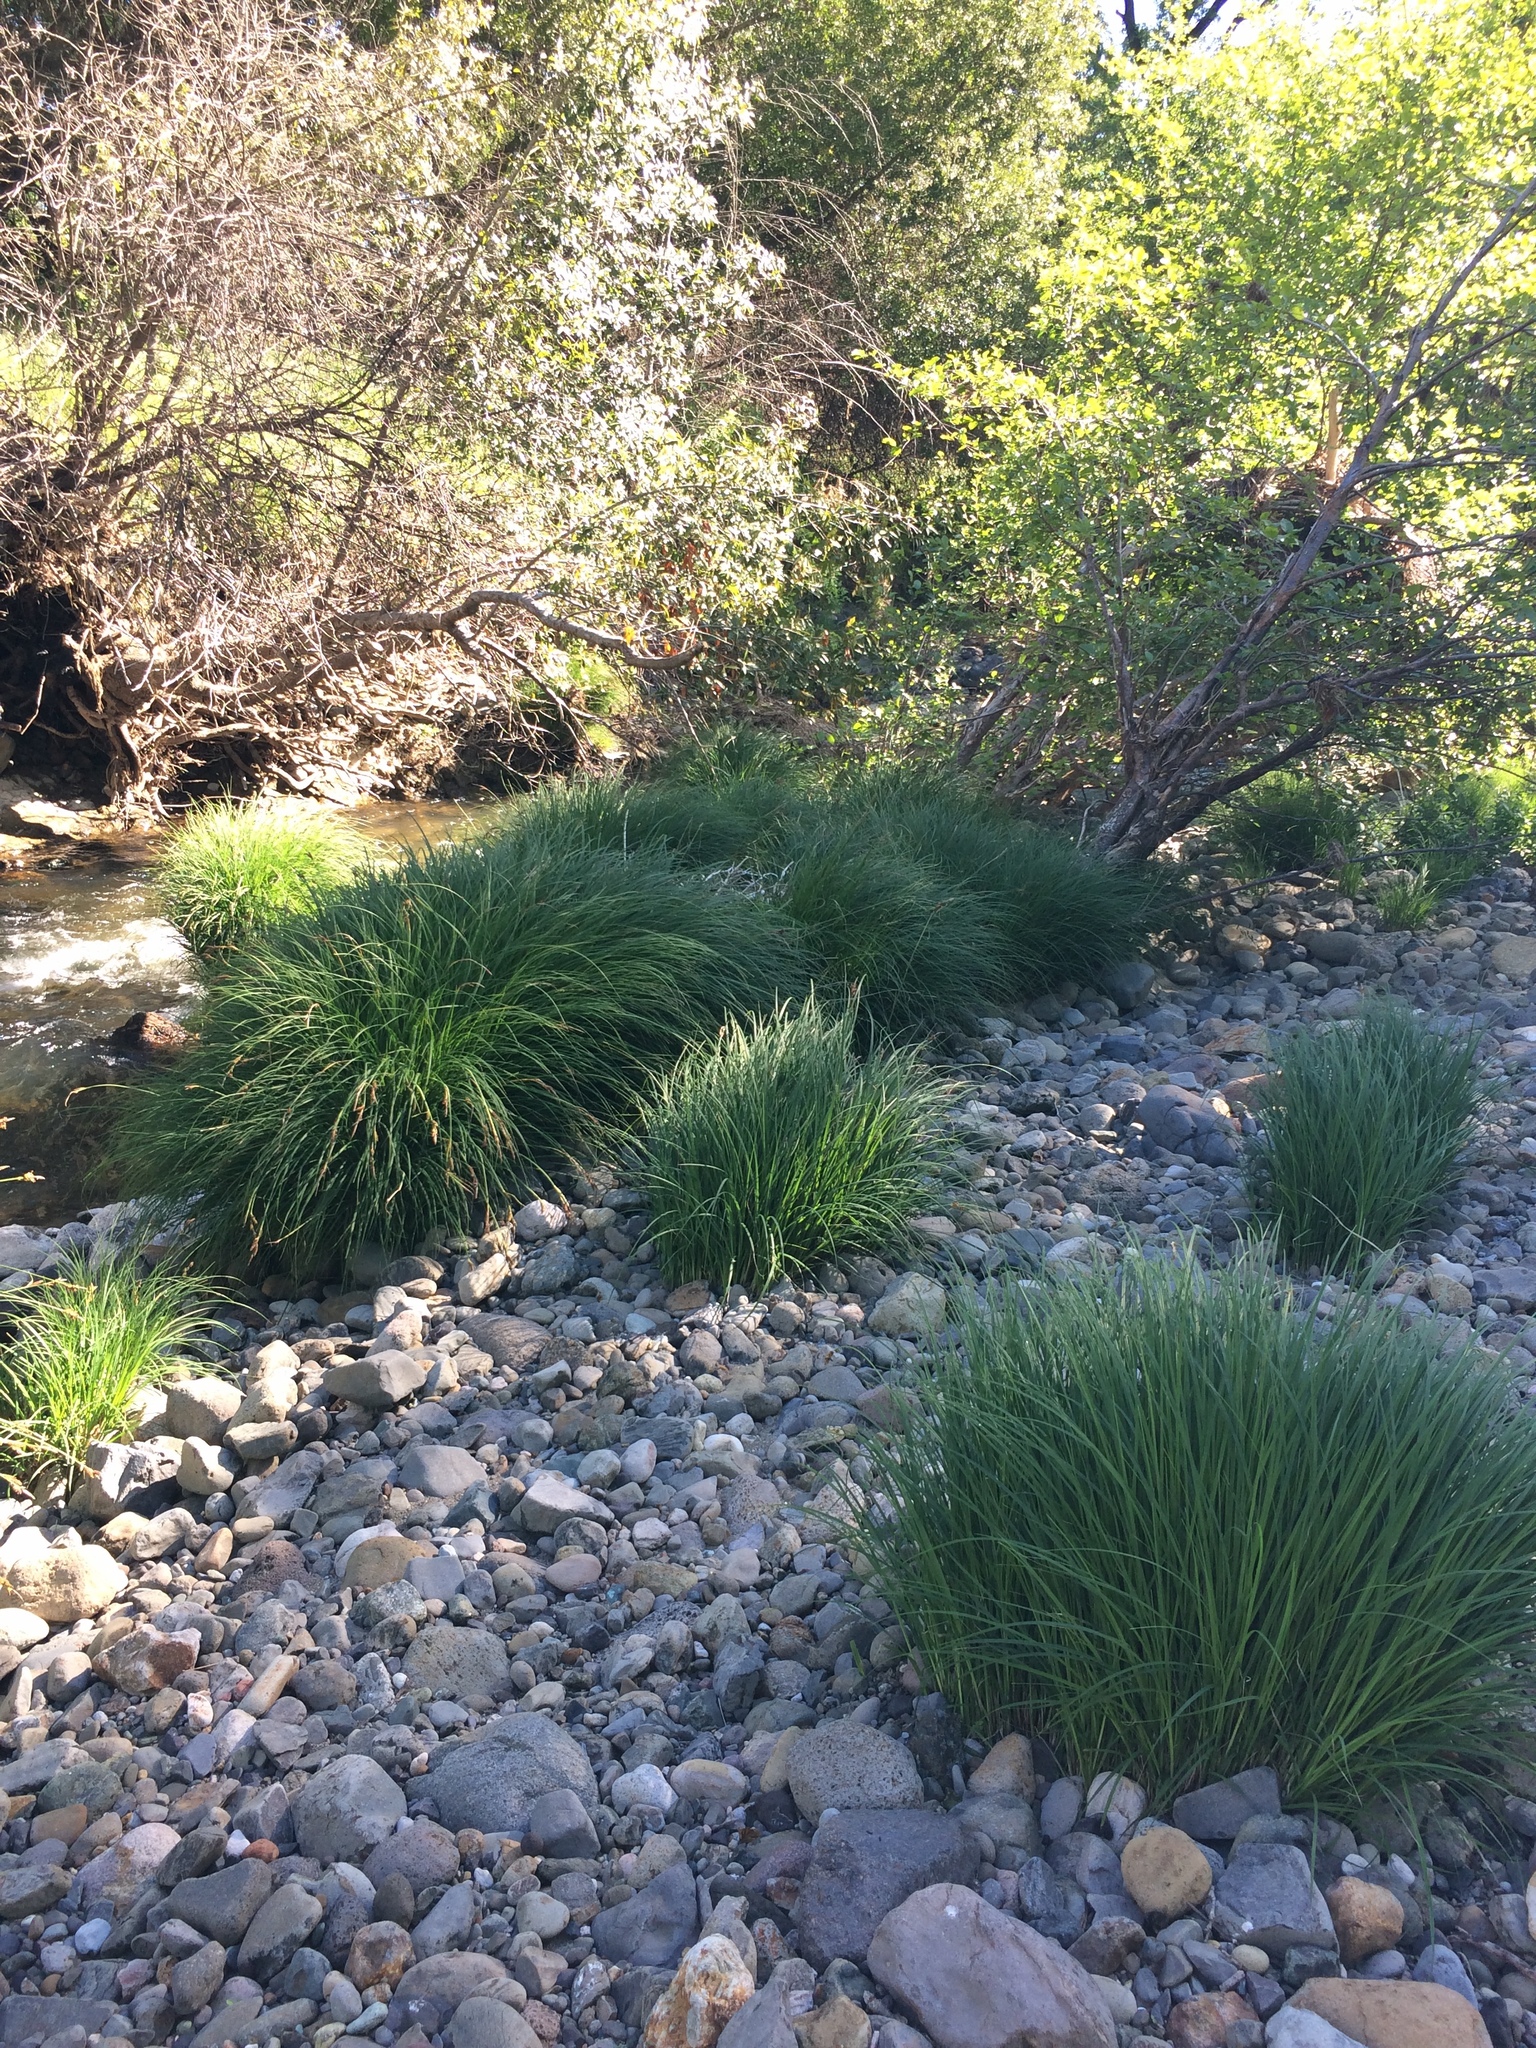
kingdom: Plantae
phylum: Tracheophyta
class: Liliopsida
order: Poales
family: Cyperaceae
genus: Carex
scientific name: Carex nudata
